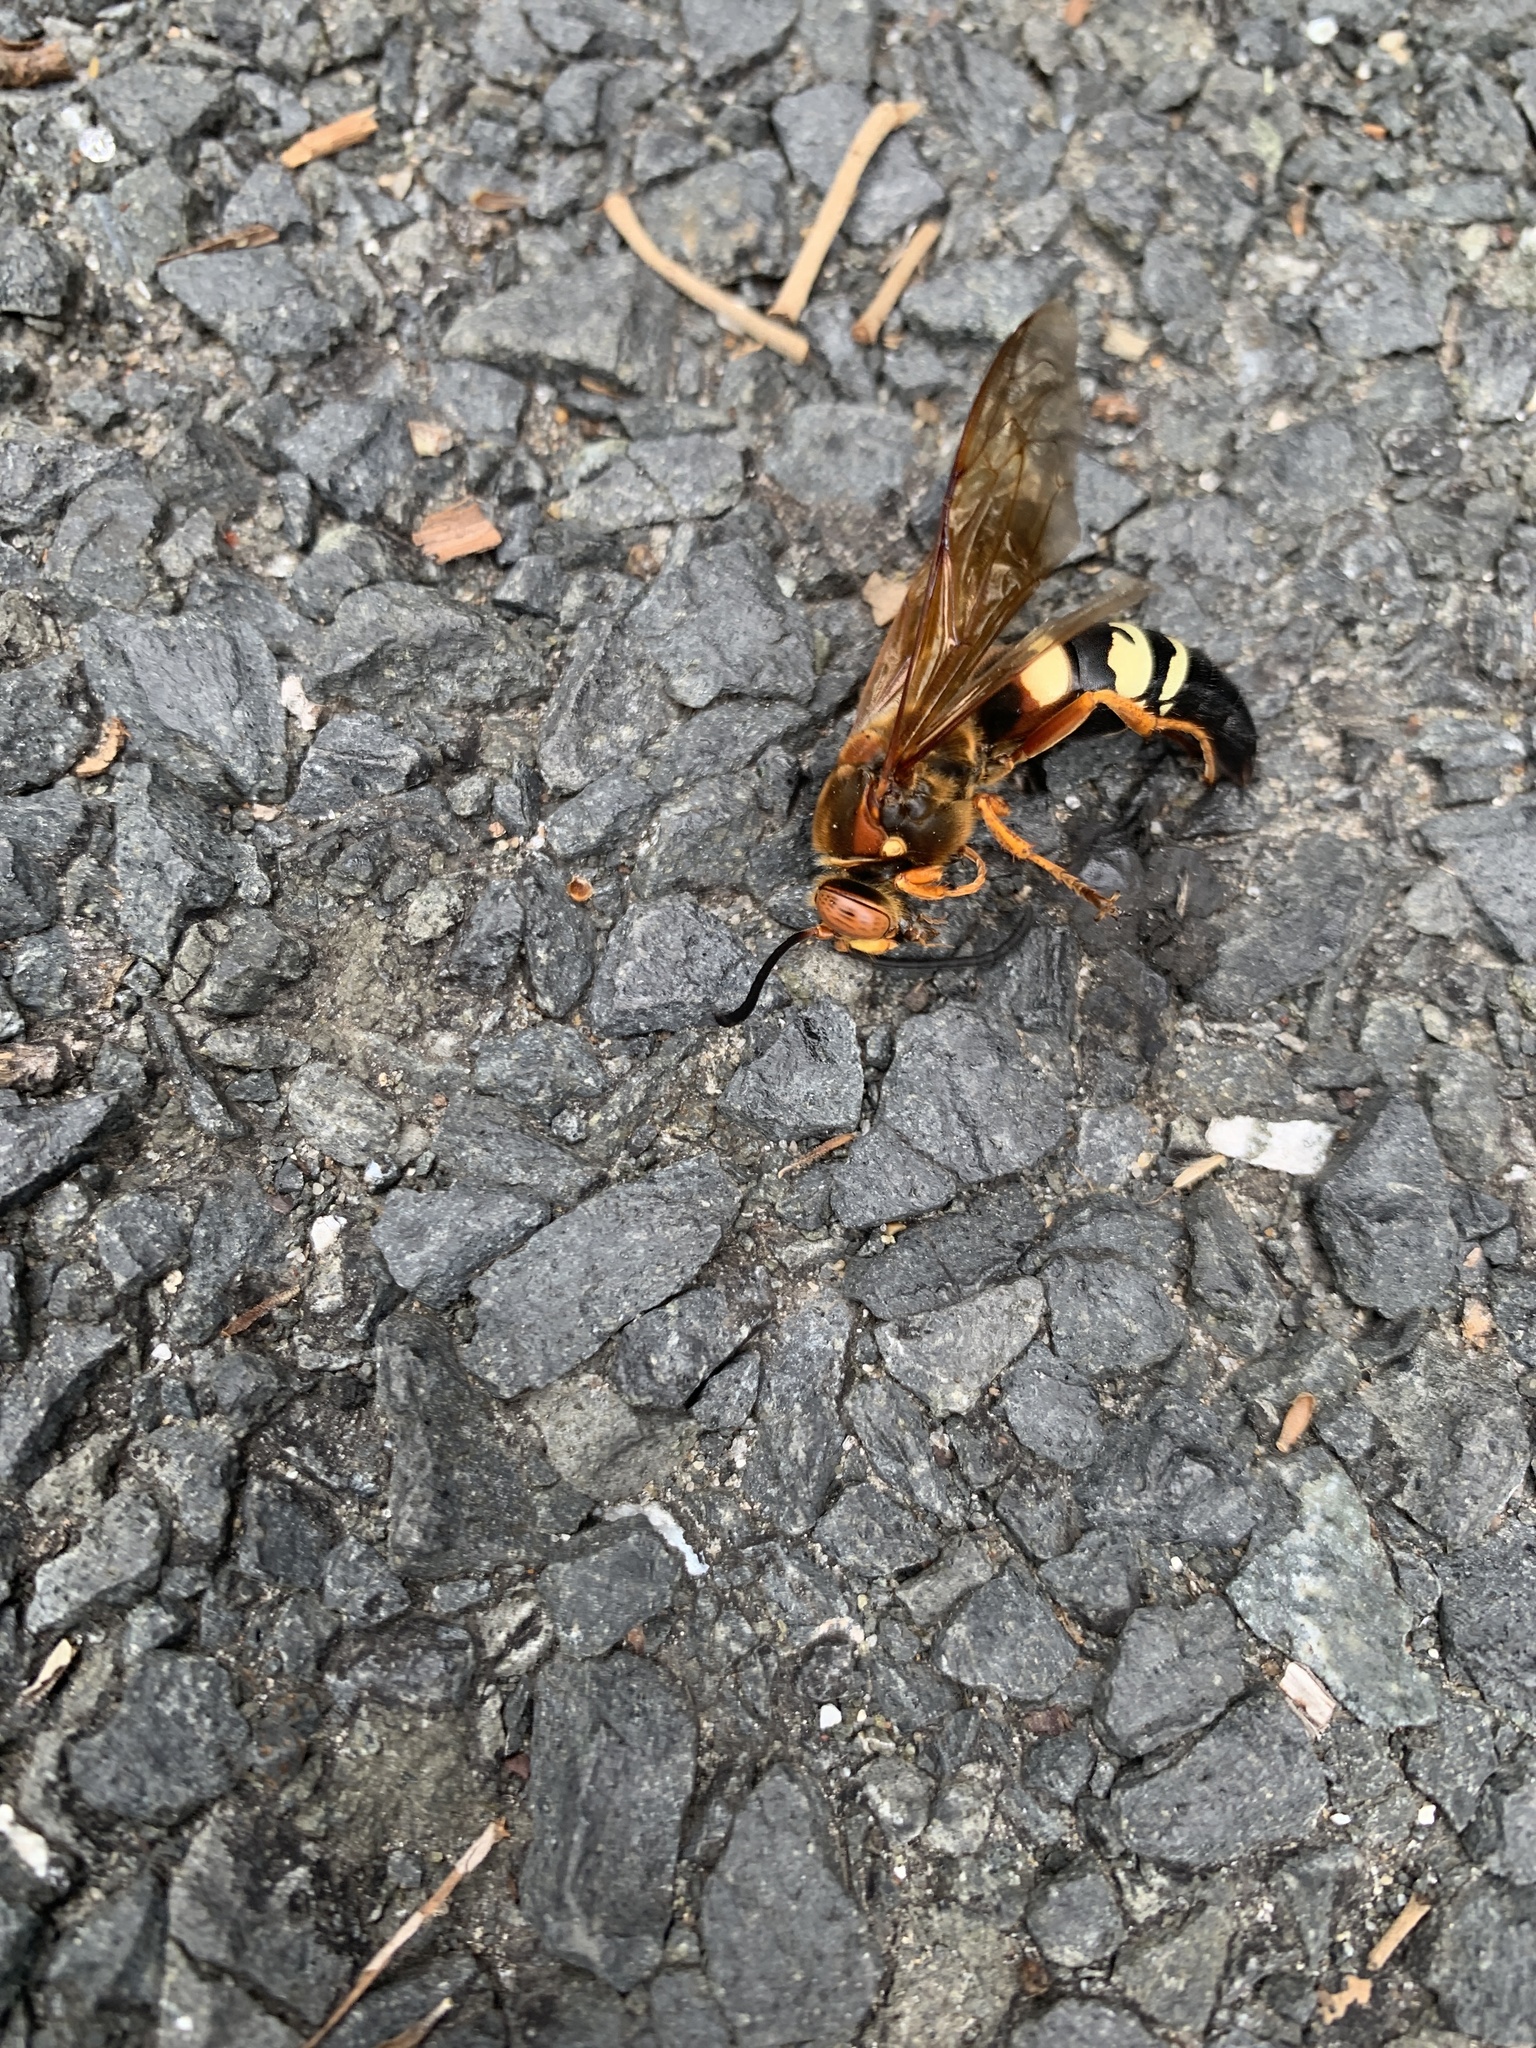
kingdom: Animalia
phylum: Arthropoda
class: Insecta
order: Hymenoptera
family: Crabronidae
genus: Sphecius
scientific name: Sphecius speciosus
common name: Cicada killer
